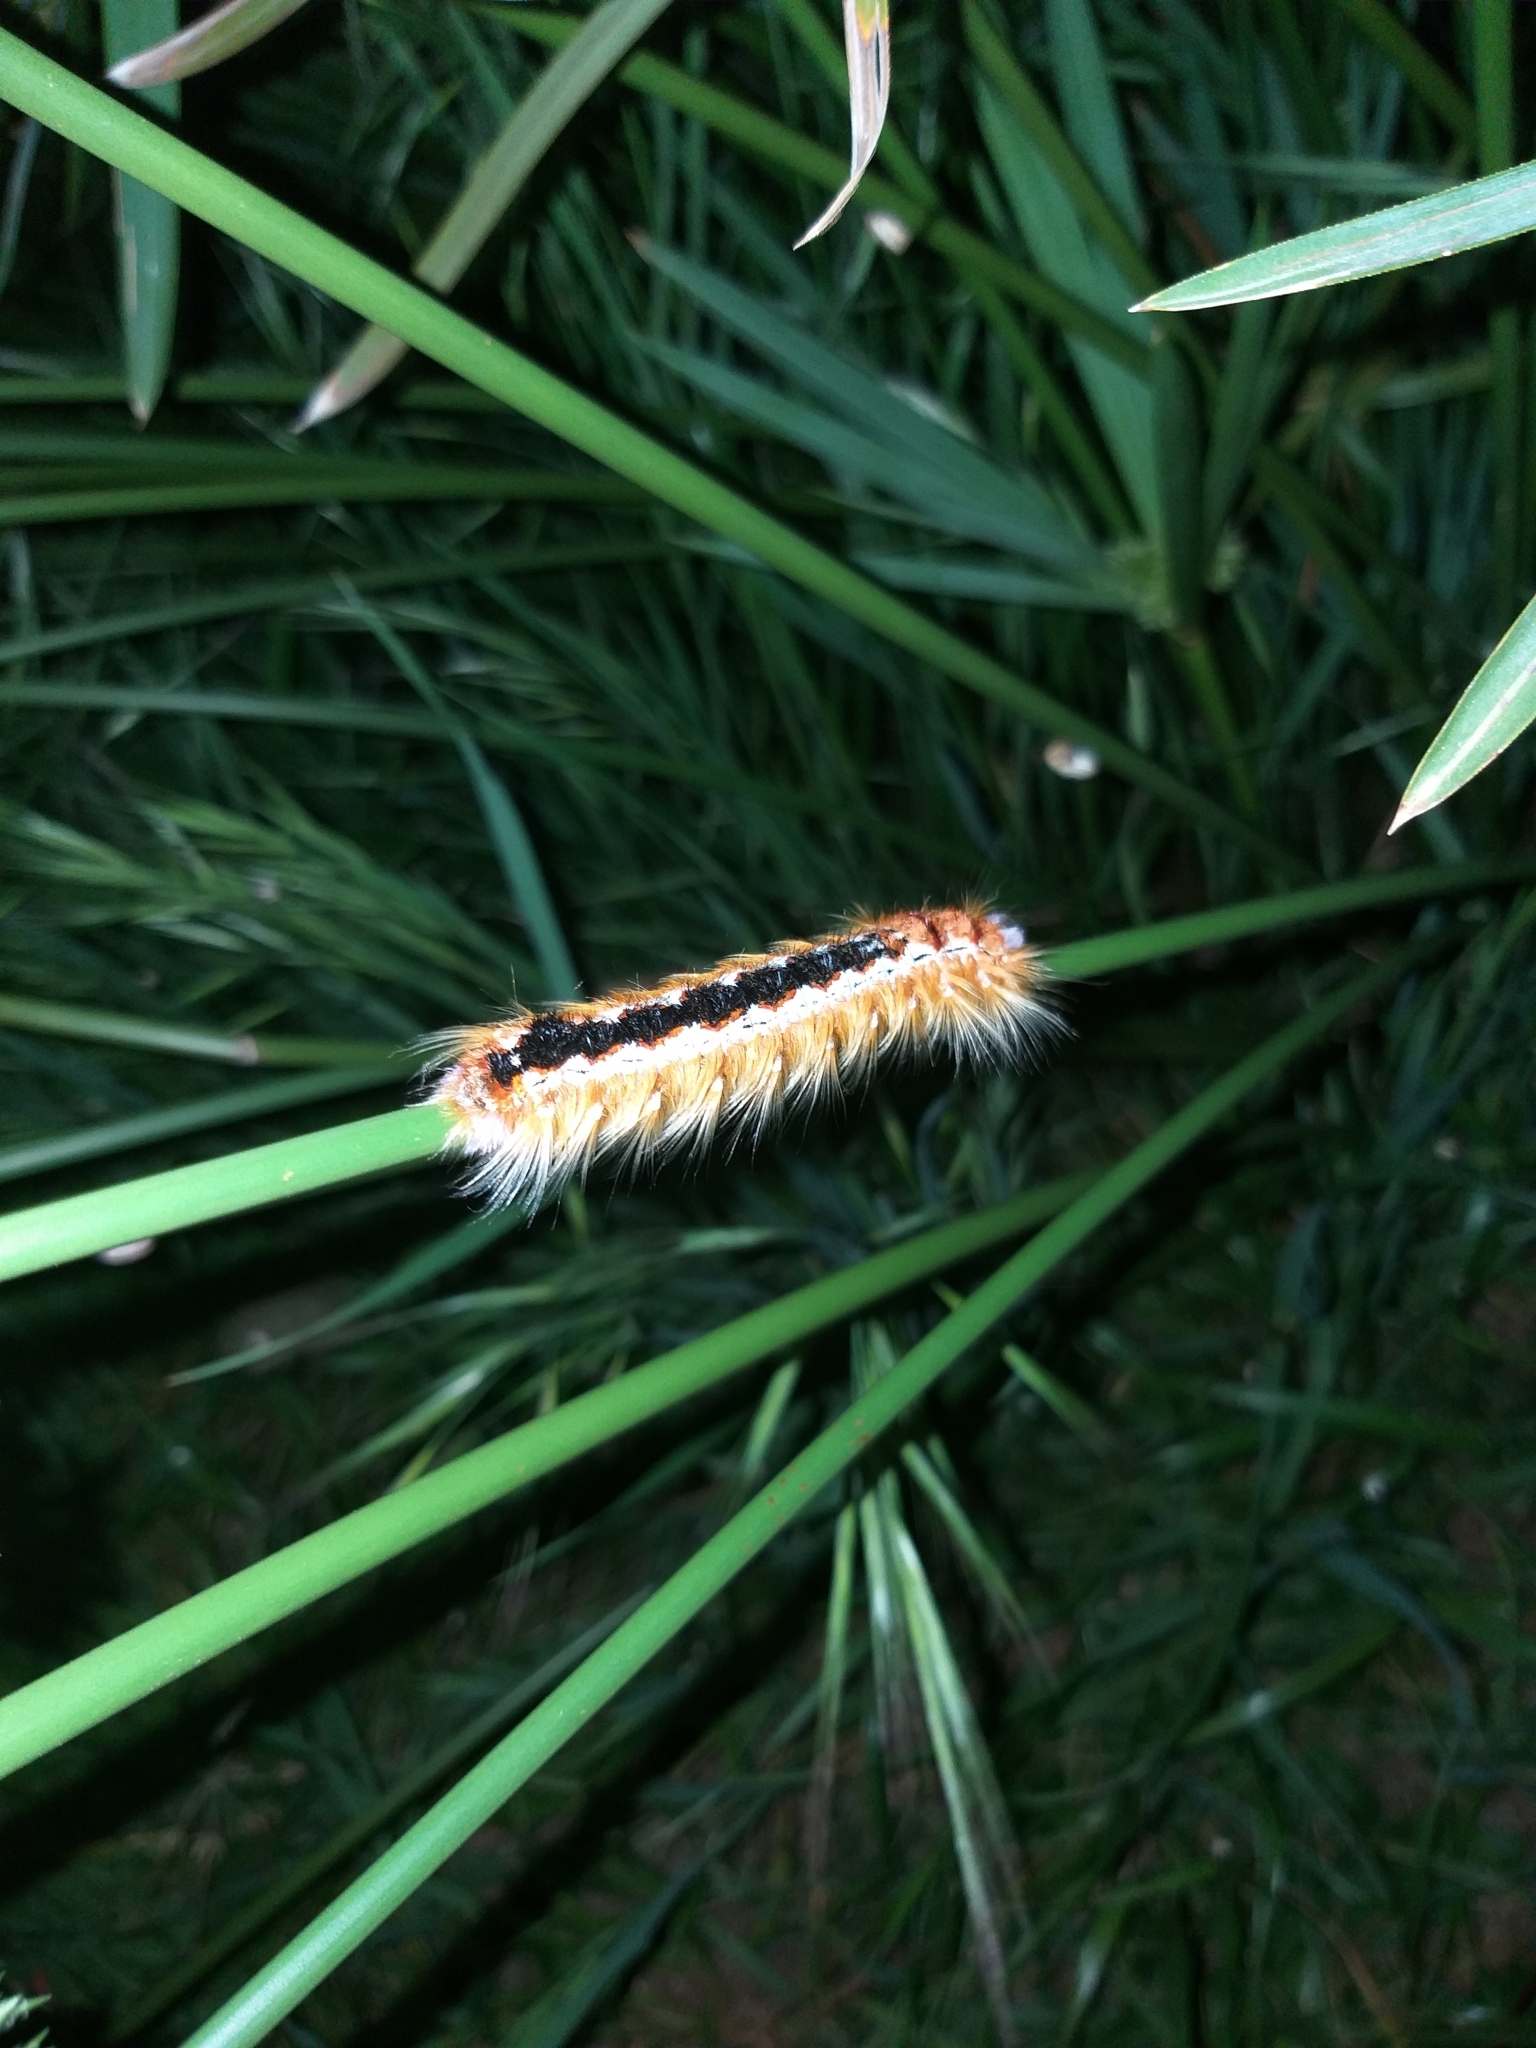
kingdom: Animalia
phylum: Arthropoda
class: Insecta
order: Lepidoptera
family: Lasiocampidae
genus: Eutricha
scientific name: Eutricha capensis
